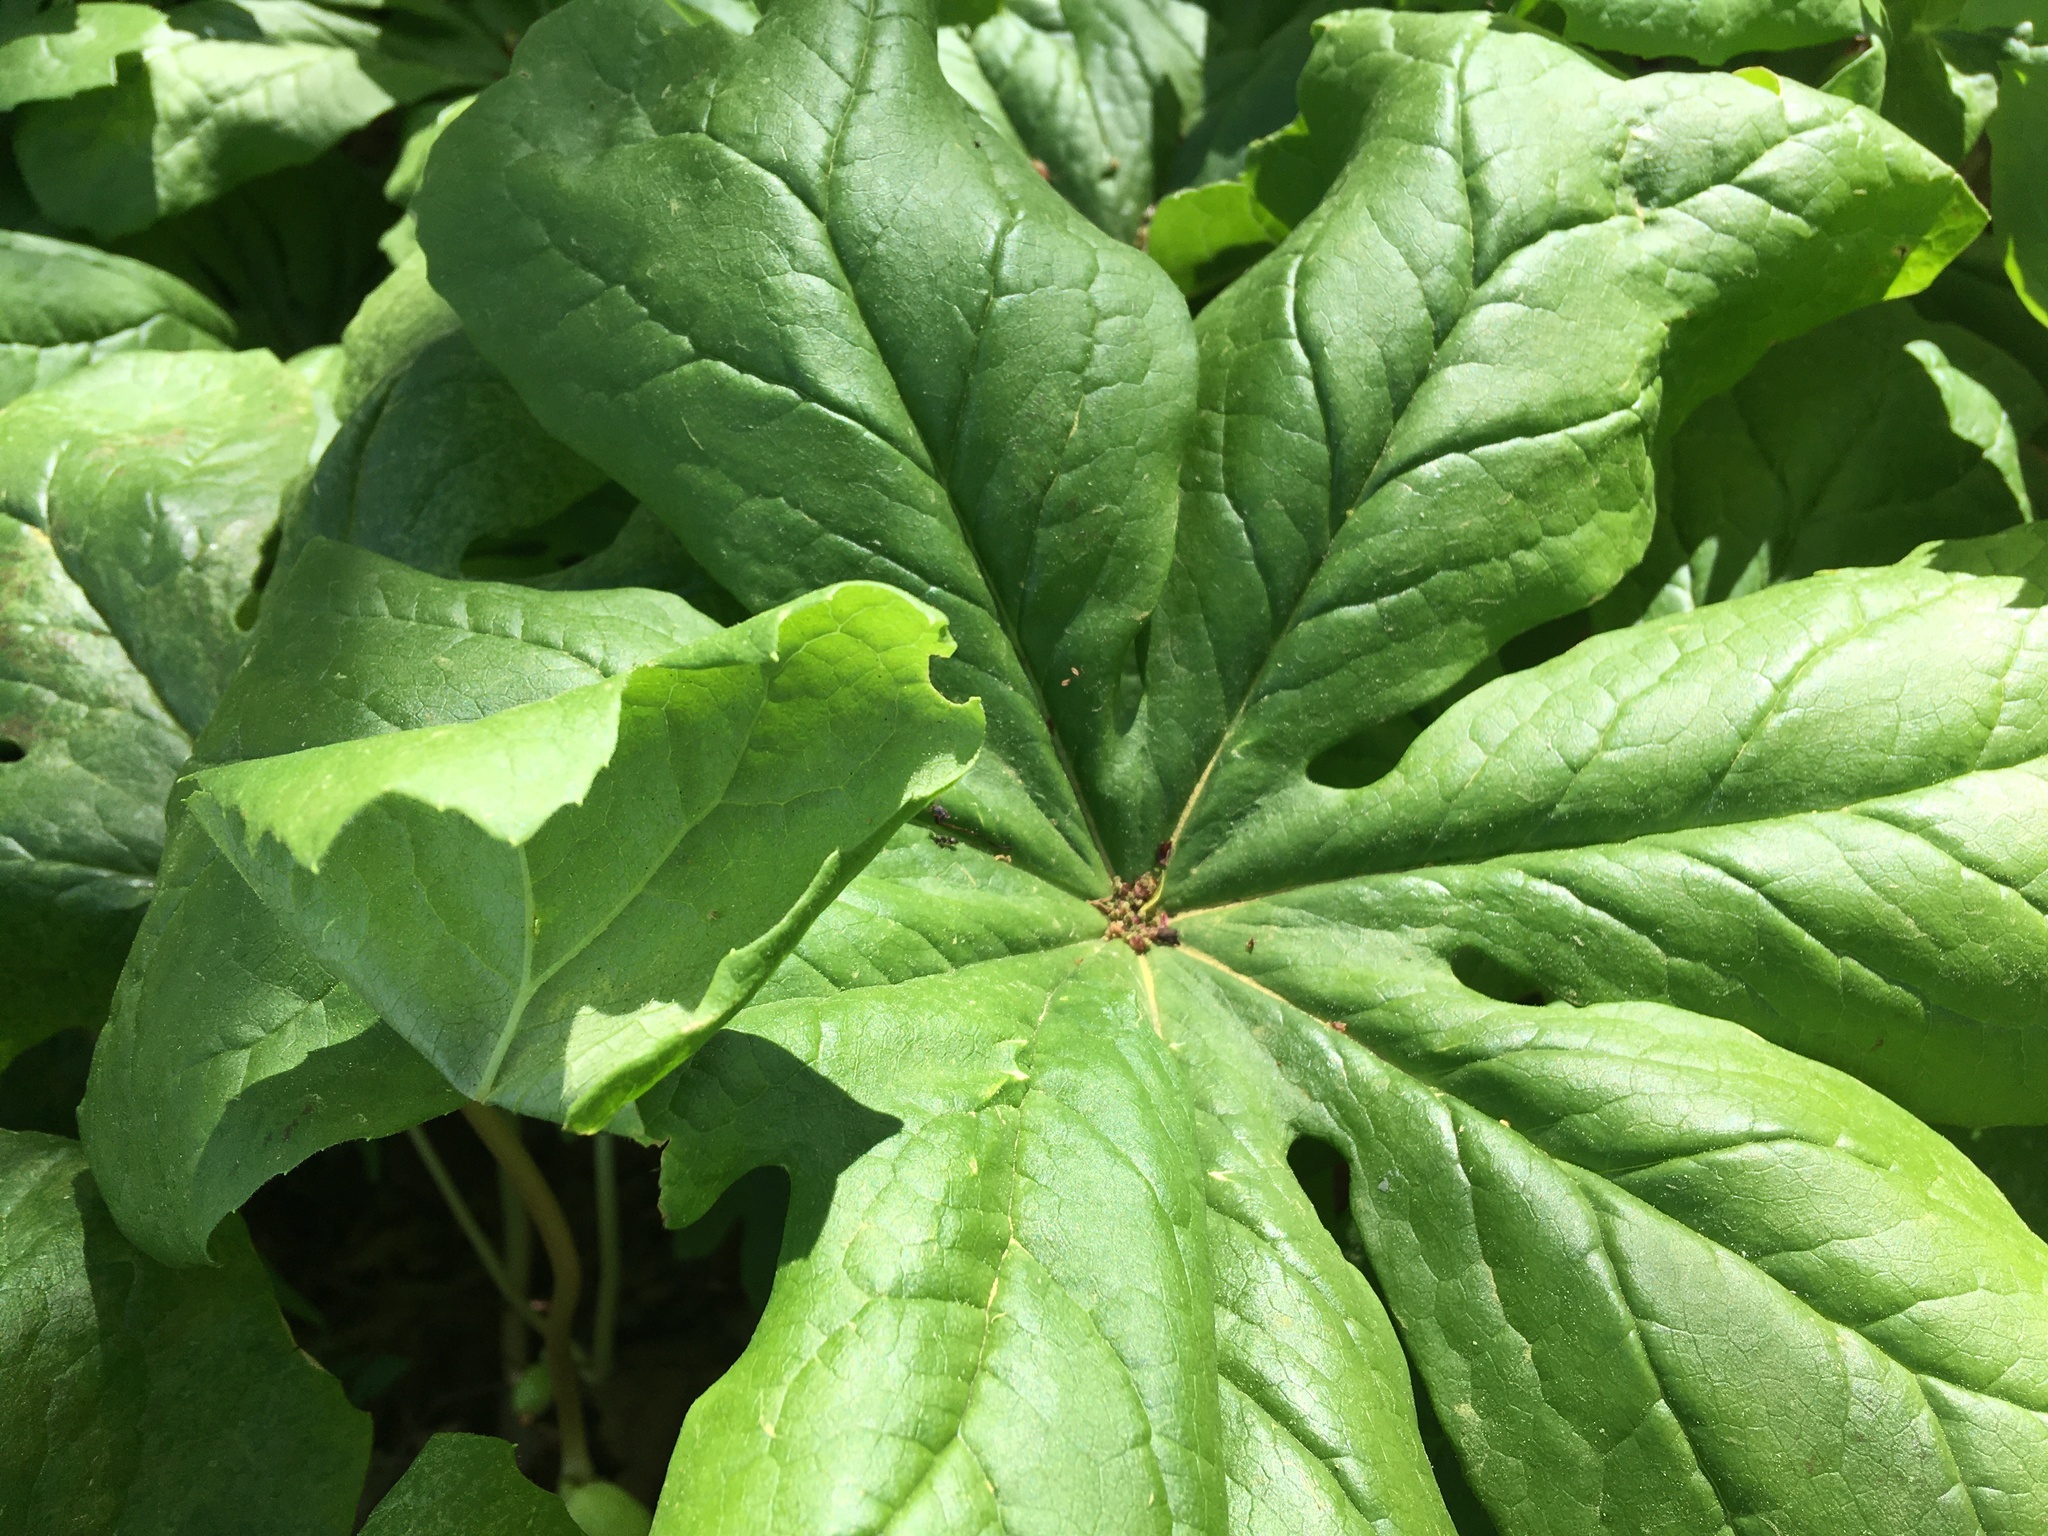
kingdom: Plantae
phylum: Tracheophyta
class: Magnoliopsida
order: Ranunculales
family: Berberidaceae
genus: Podophyllum
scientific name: Podophyllum peltatum
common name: Wild mandrake
